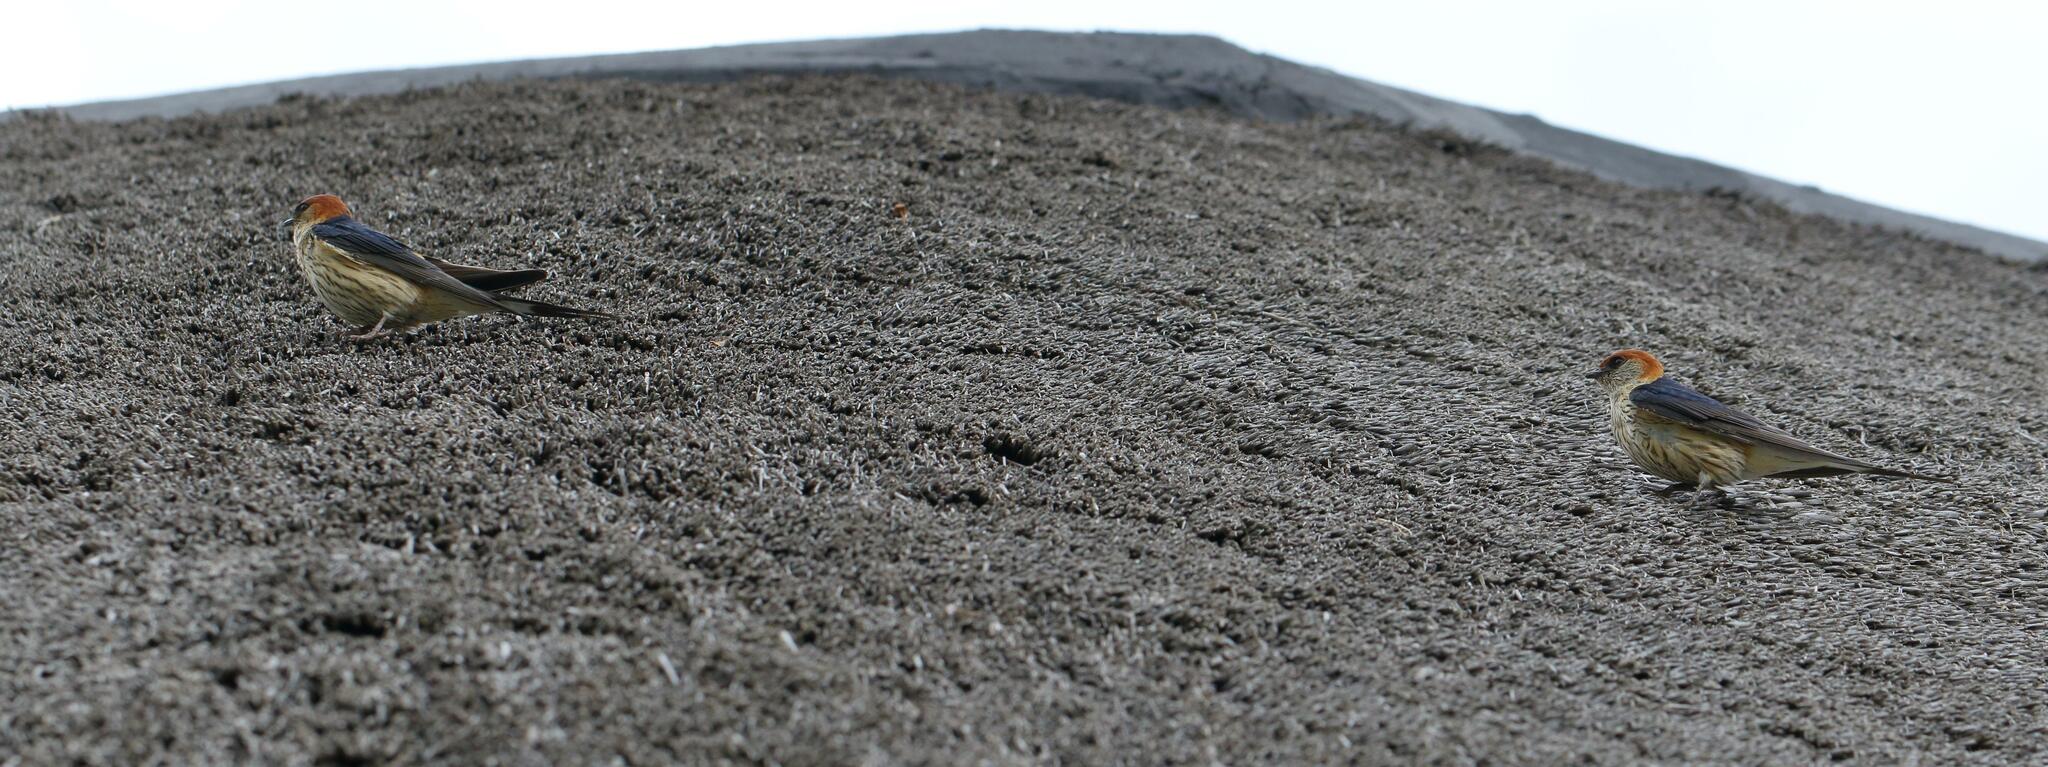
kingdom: Animalia
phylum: Chordata
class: Aves
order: Passeriformes
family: Hirundinidae
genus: Cecropis
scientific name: Cecropis cucullata
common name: Greater striped-swallow
